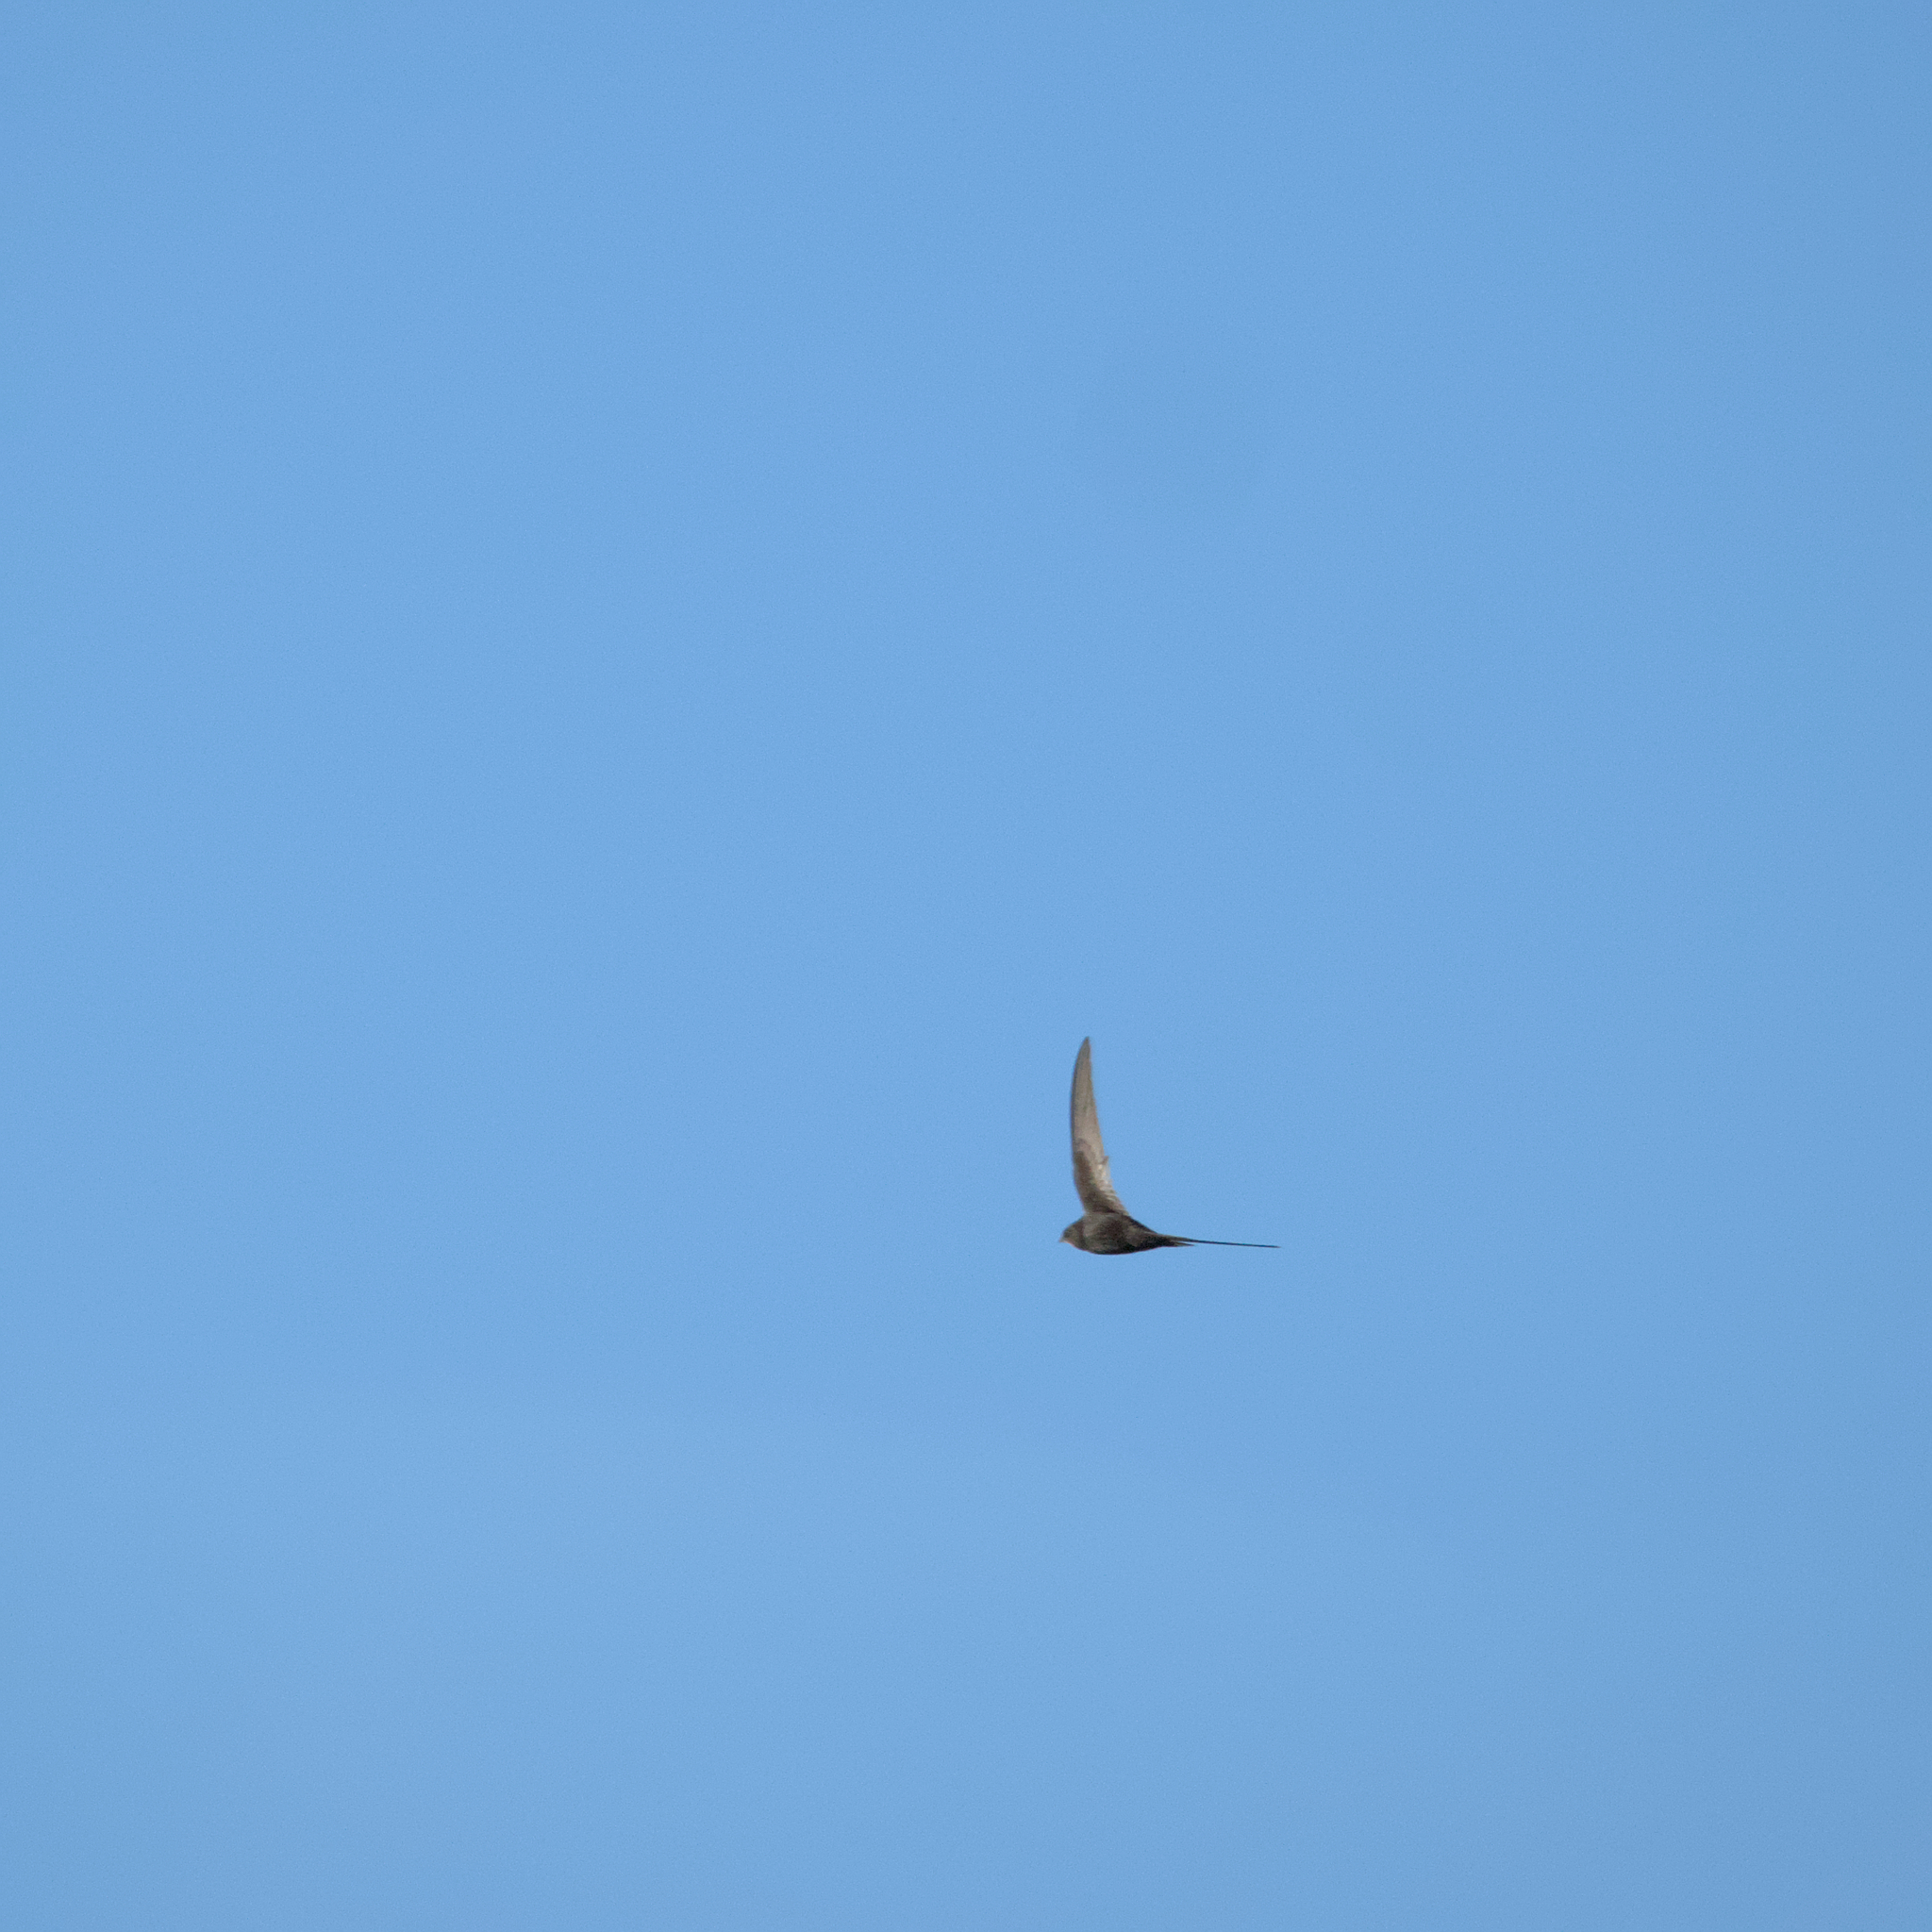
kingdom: Animalia
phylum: Chordata
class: Aves
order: Apodiformes
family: Apodidae
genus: Apus
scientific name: Apus apus
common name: Common swift
